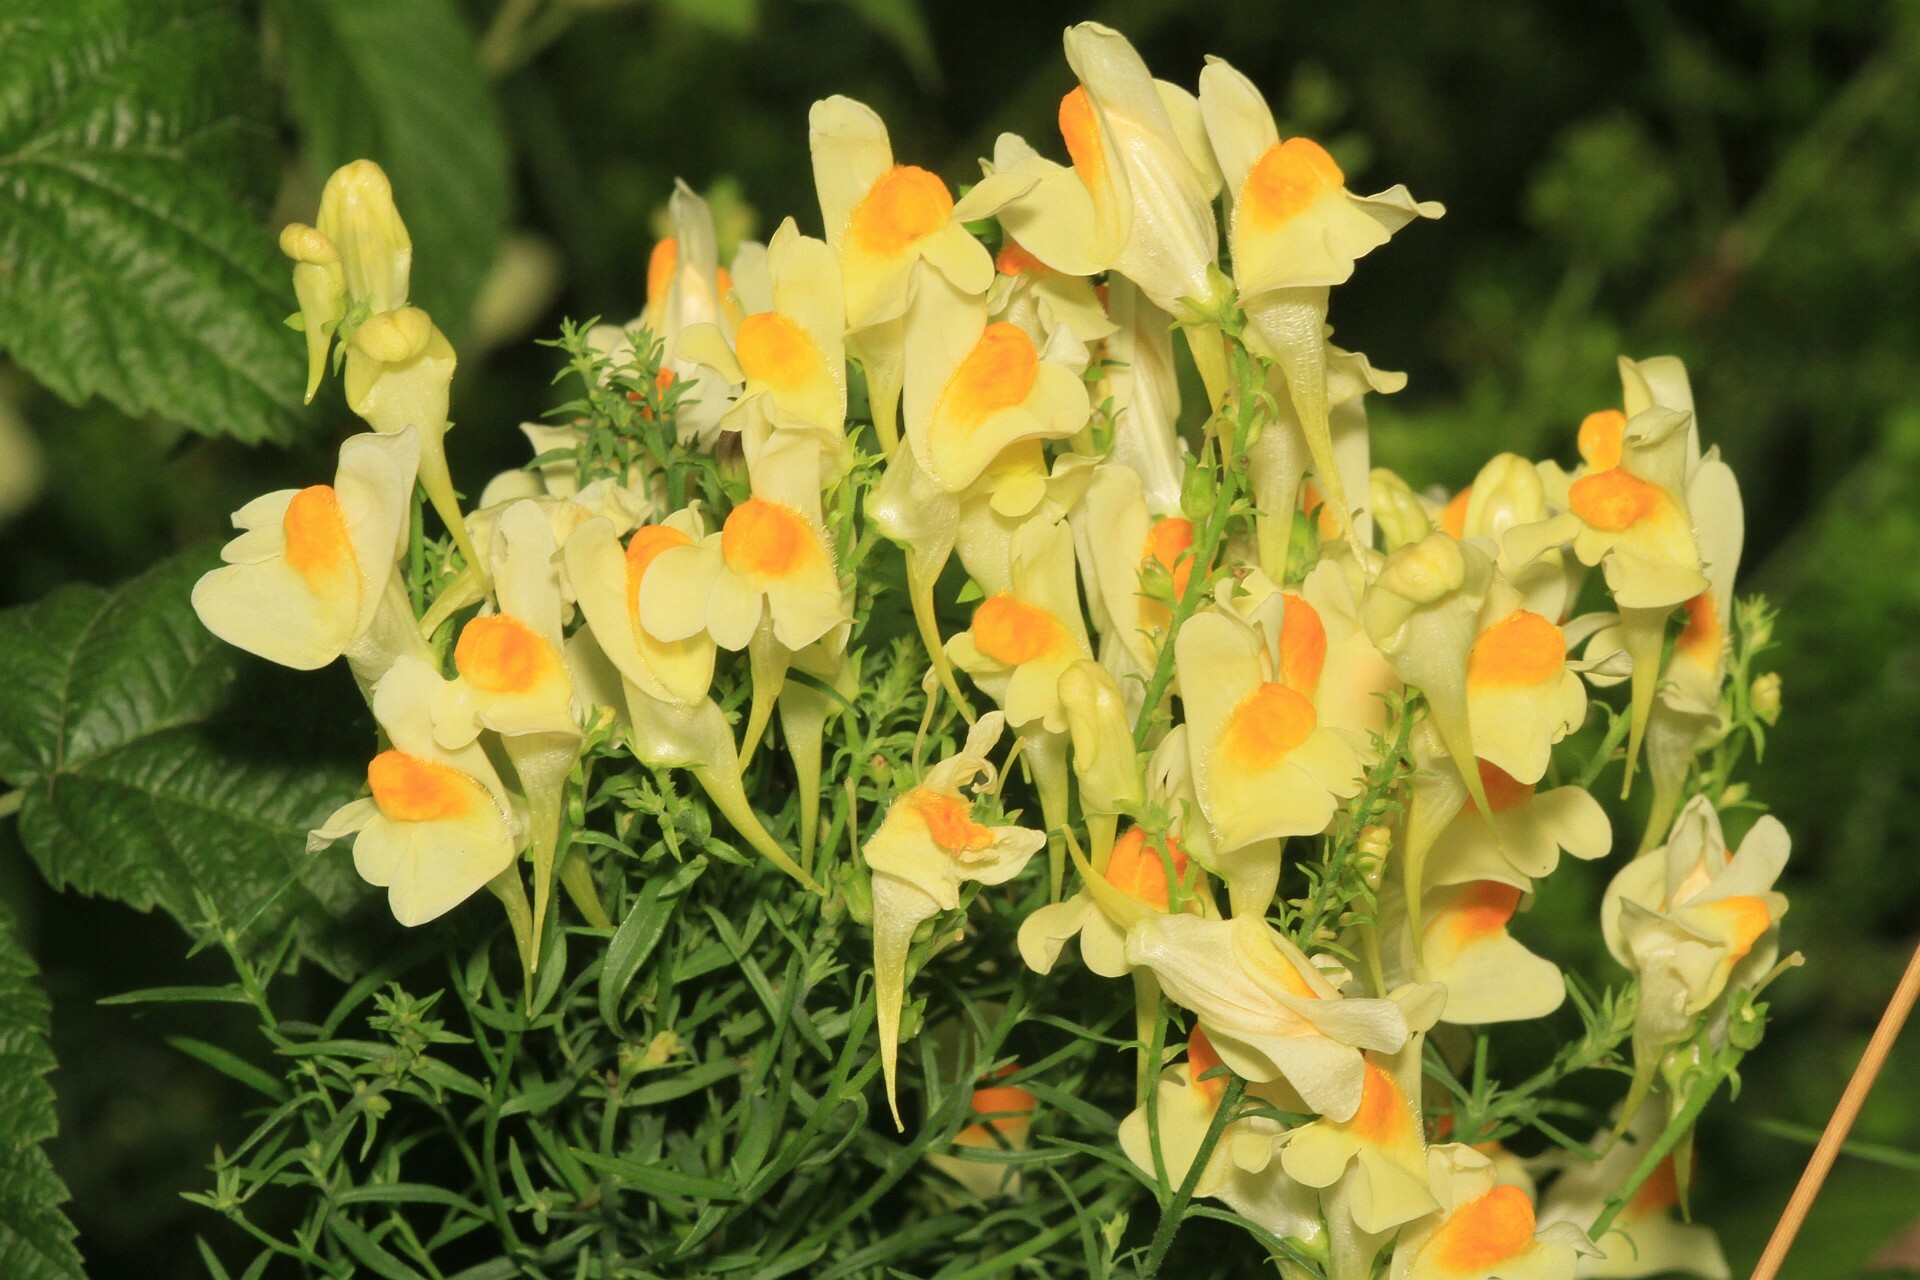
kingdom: Plantae
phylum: Tracheophyta
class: Magnoliopsida
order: Lamiales
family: Plantaginaceae
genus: Linaria
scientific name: Linaria vulgaris
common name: Butter and eggs
